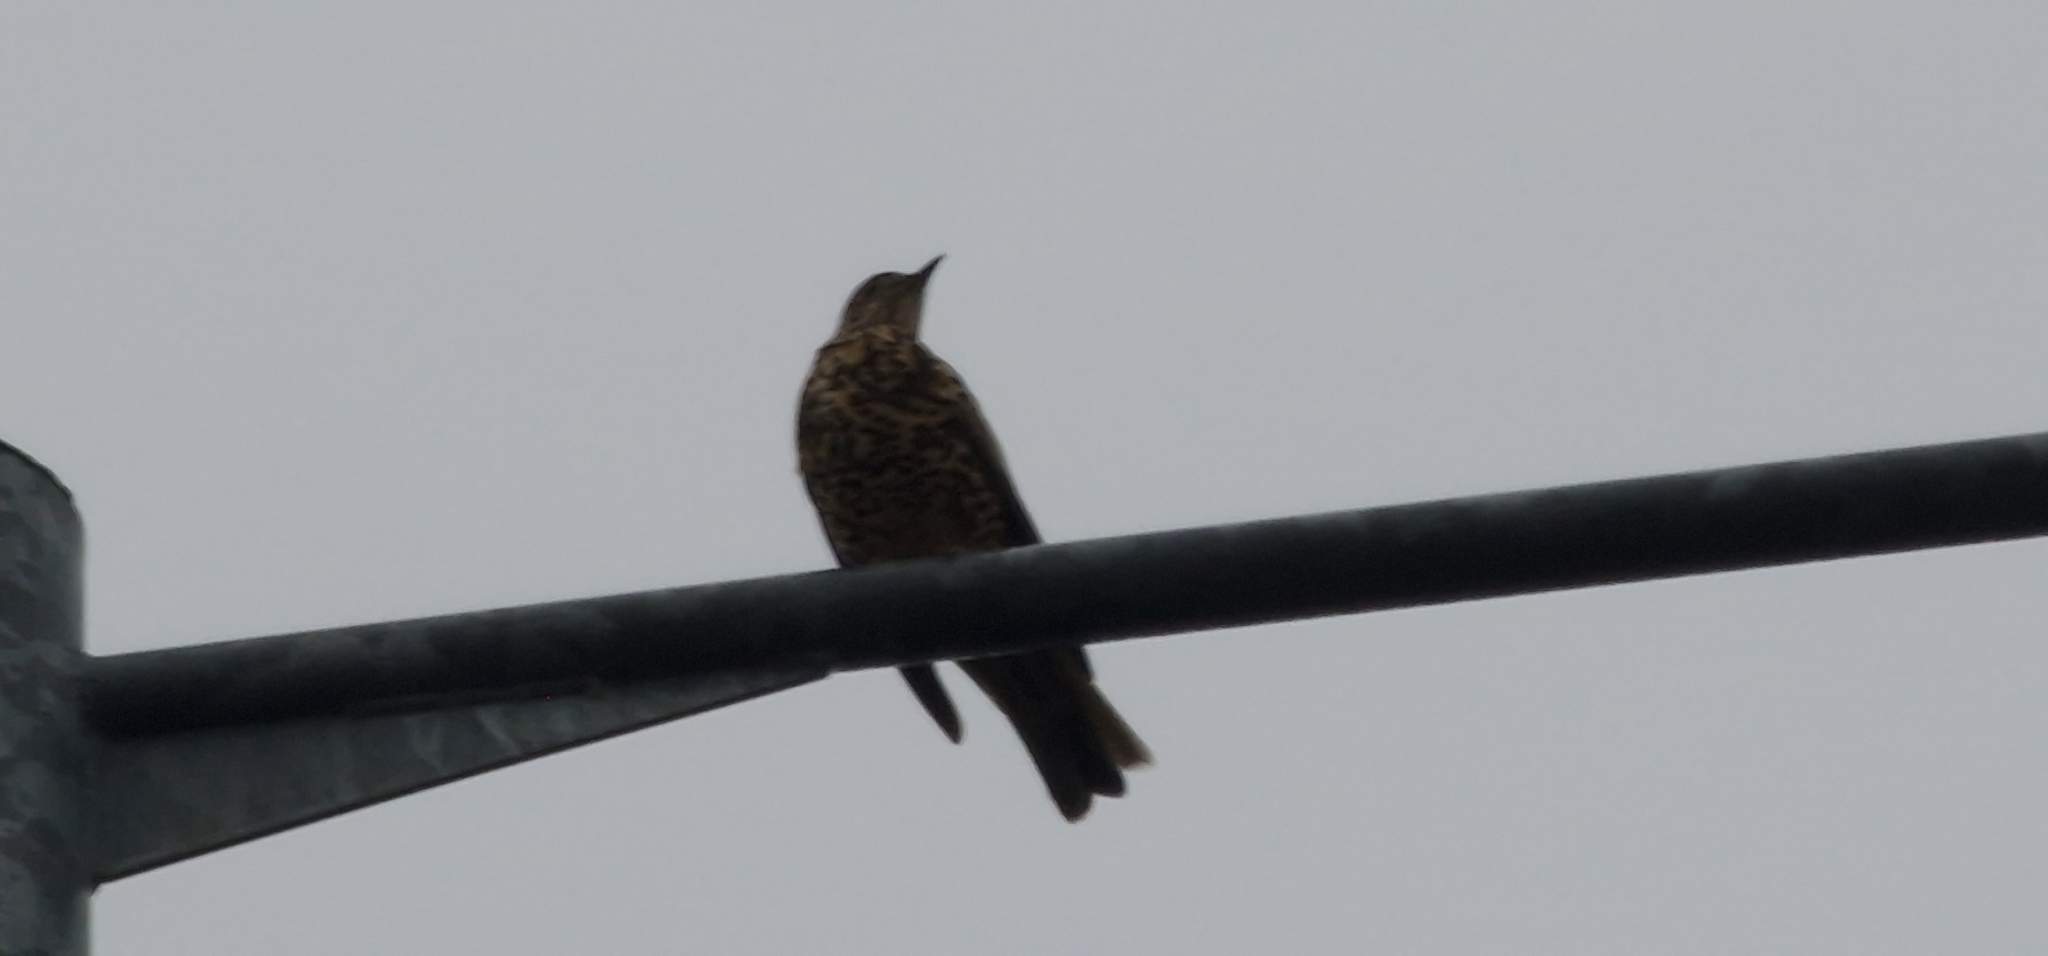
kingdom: Animalia
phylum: Chordata
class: Aves
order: Passeriformes
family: Turdidae
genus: Turdus
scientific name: Turdus viscivorus
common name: Mistle thrush
